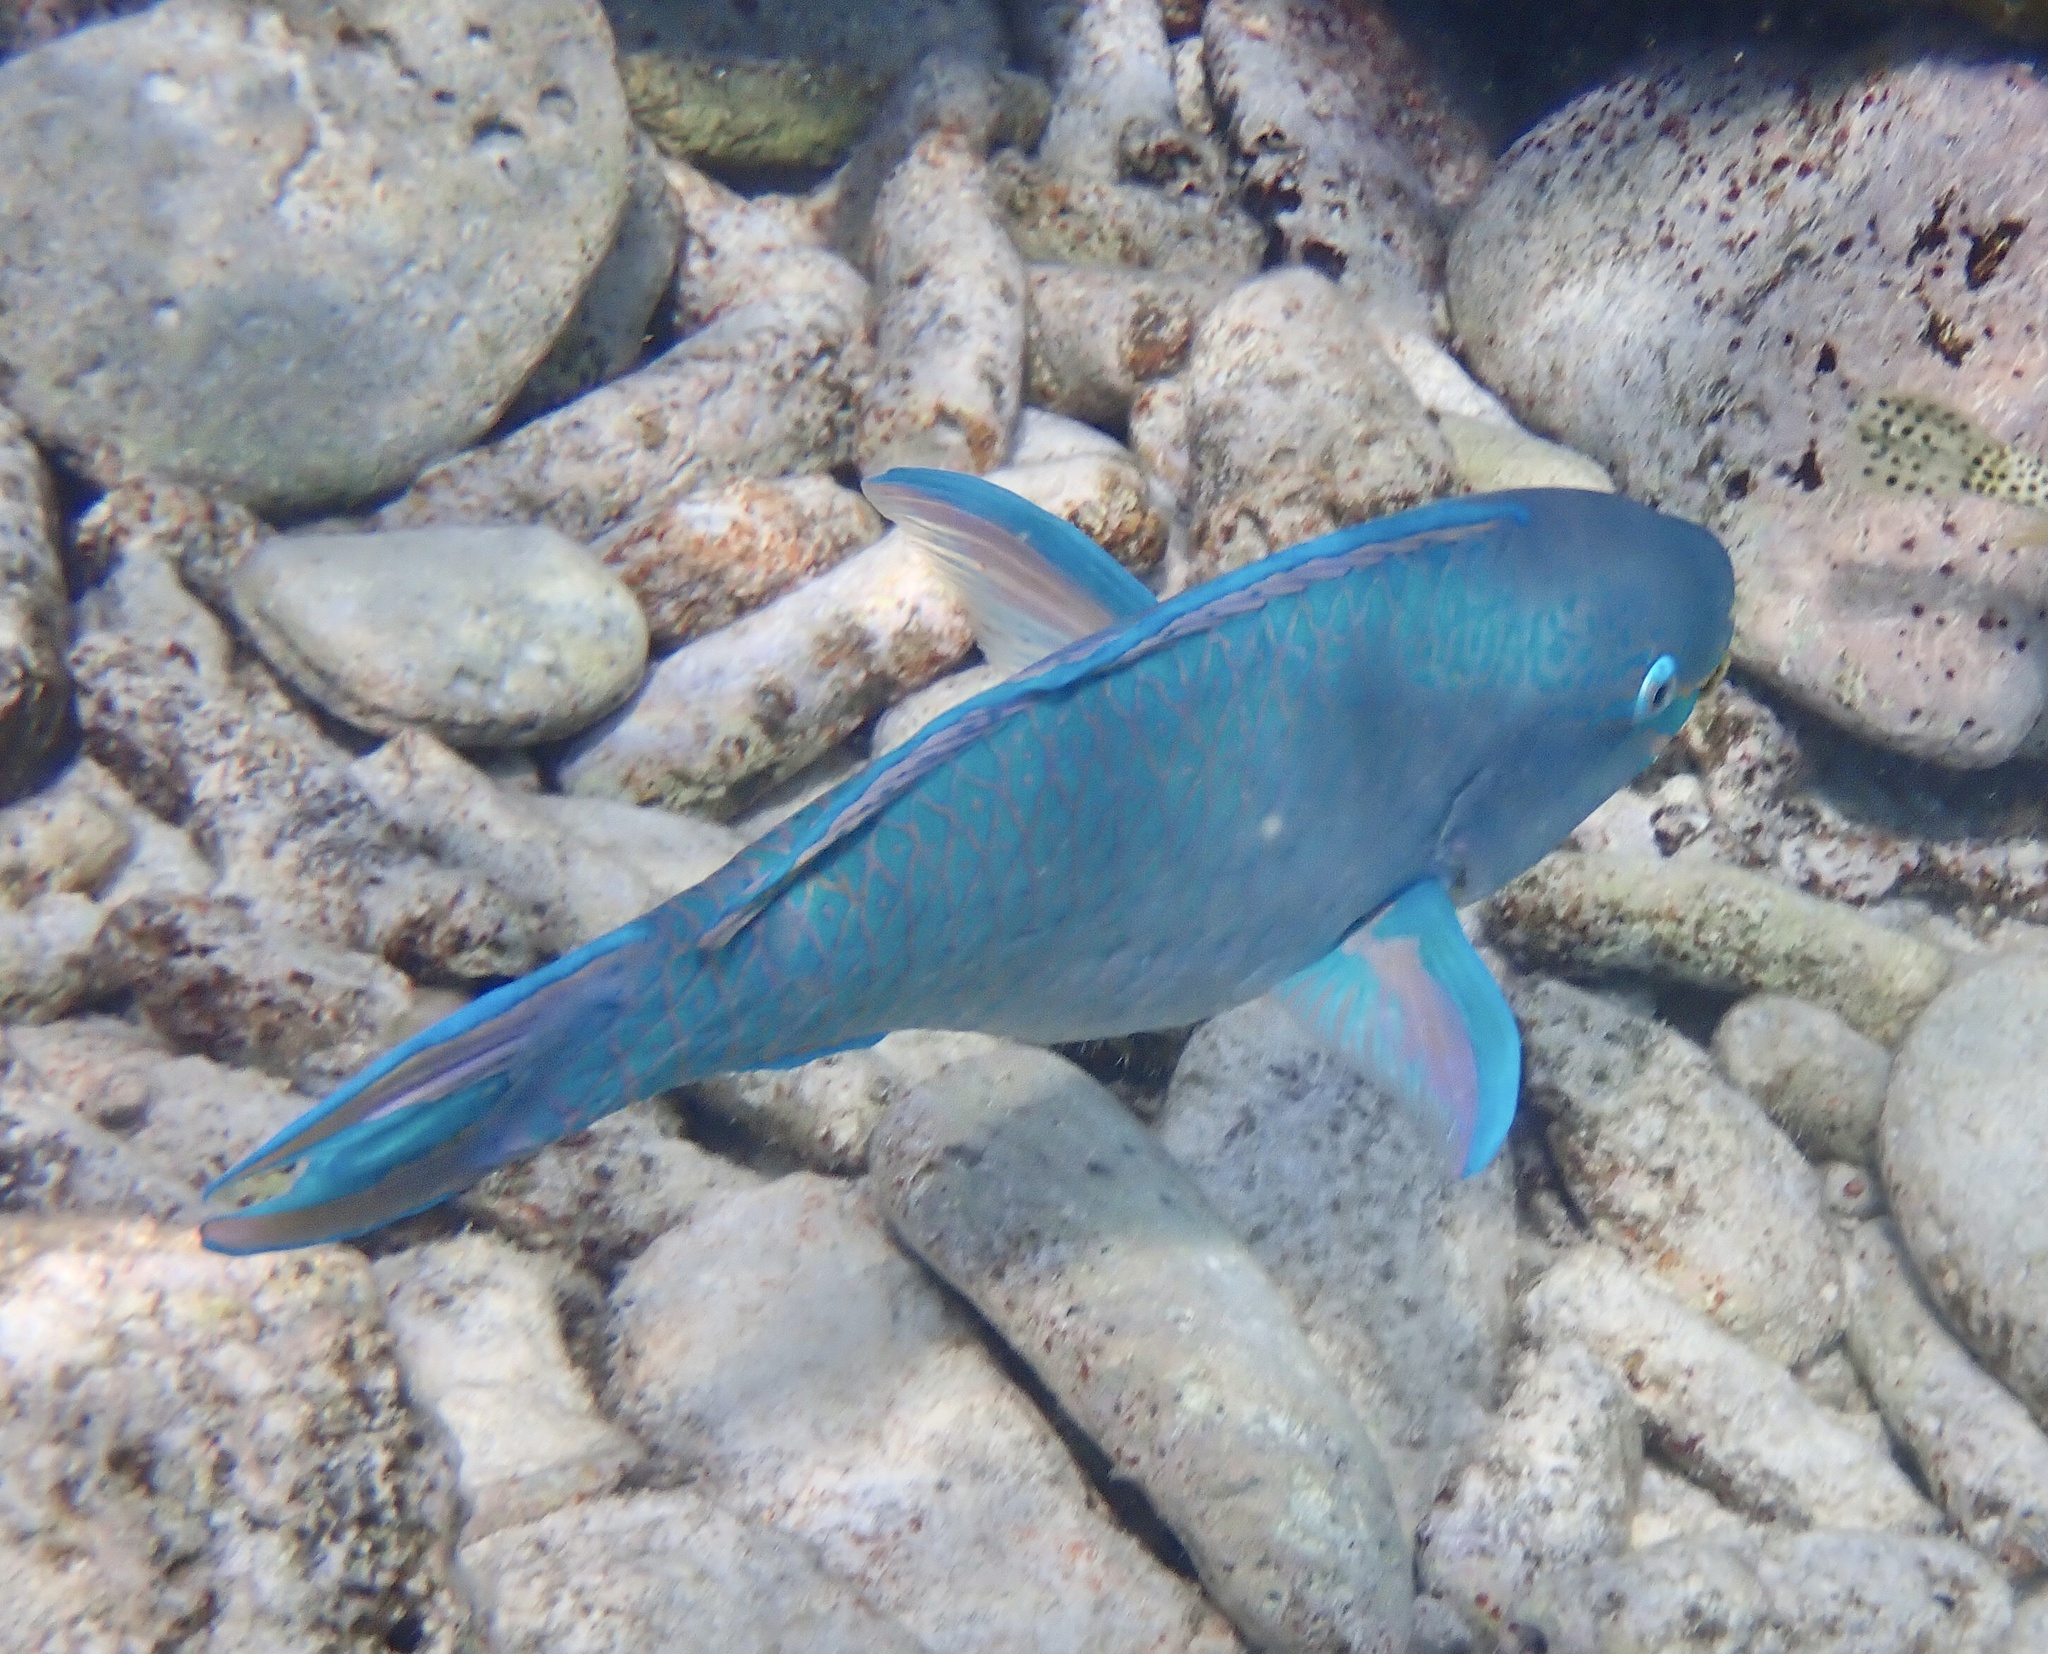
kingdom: Animalia
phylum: Chordata
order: Perciformes
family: Scaridae
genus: Scarus
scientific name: Scarus vetula
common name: Queen parrotfish
